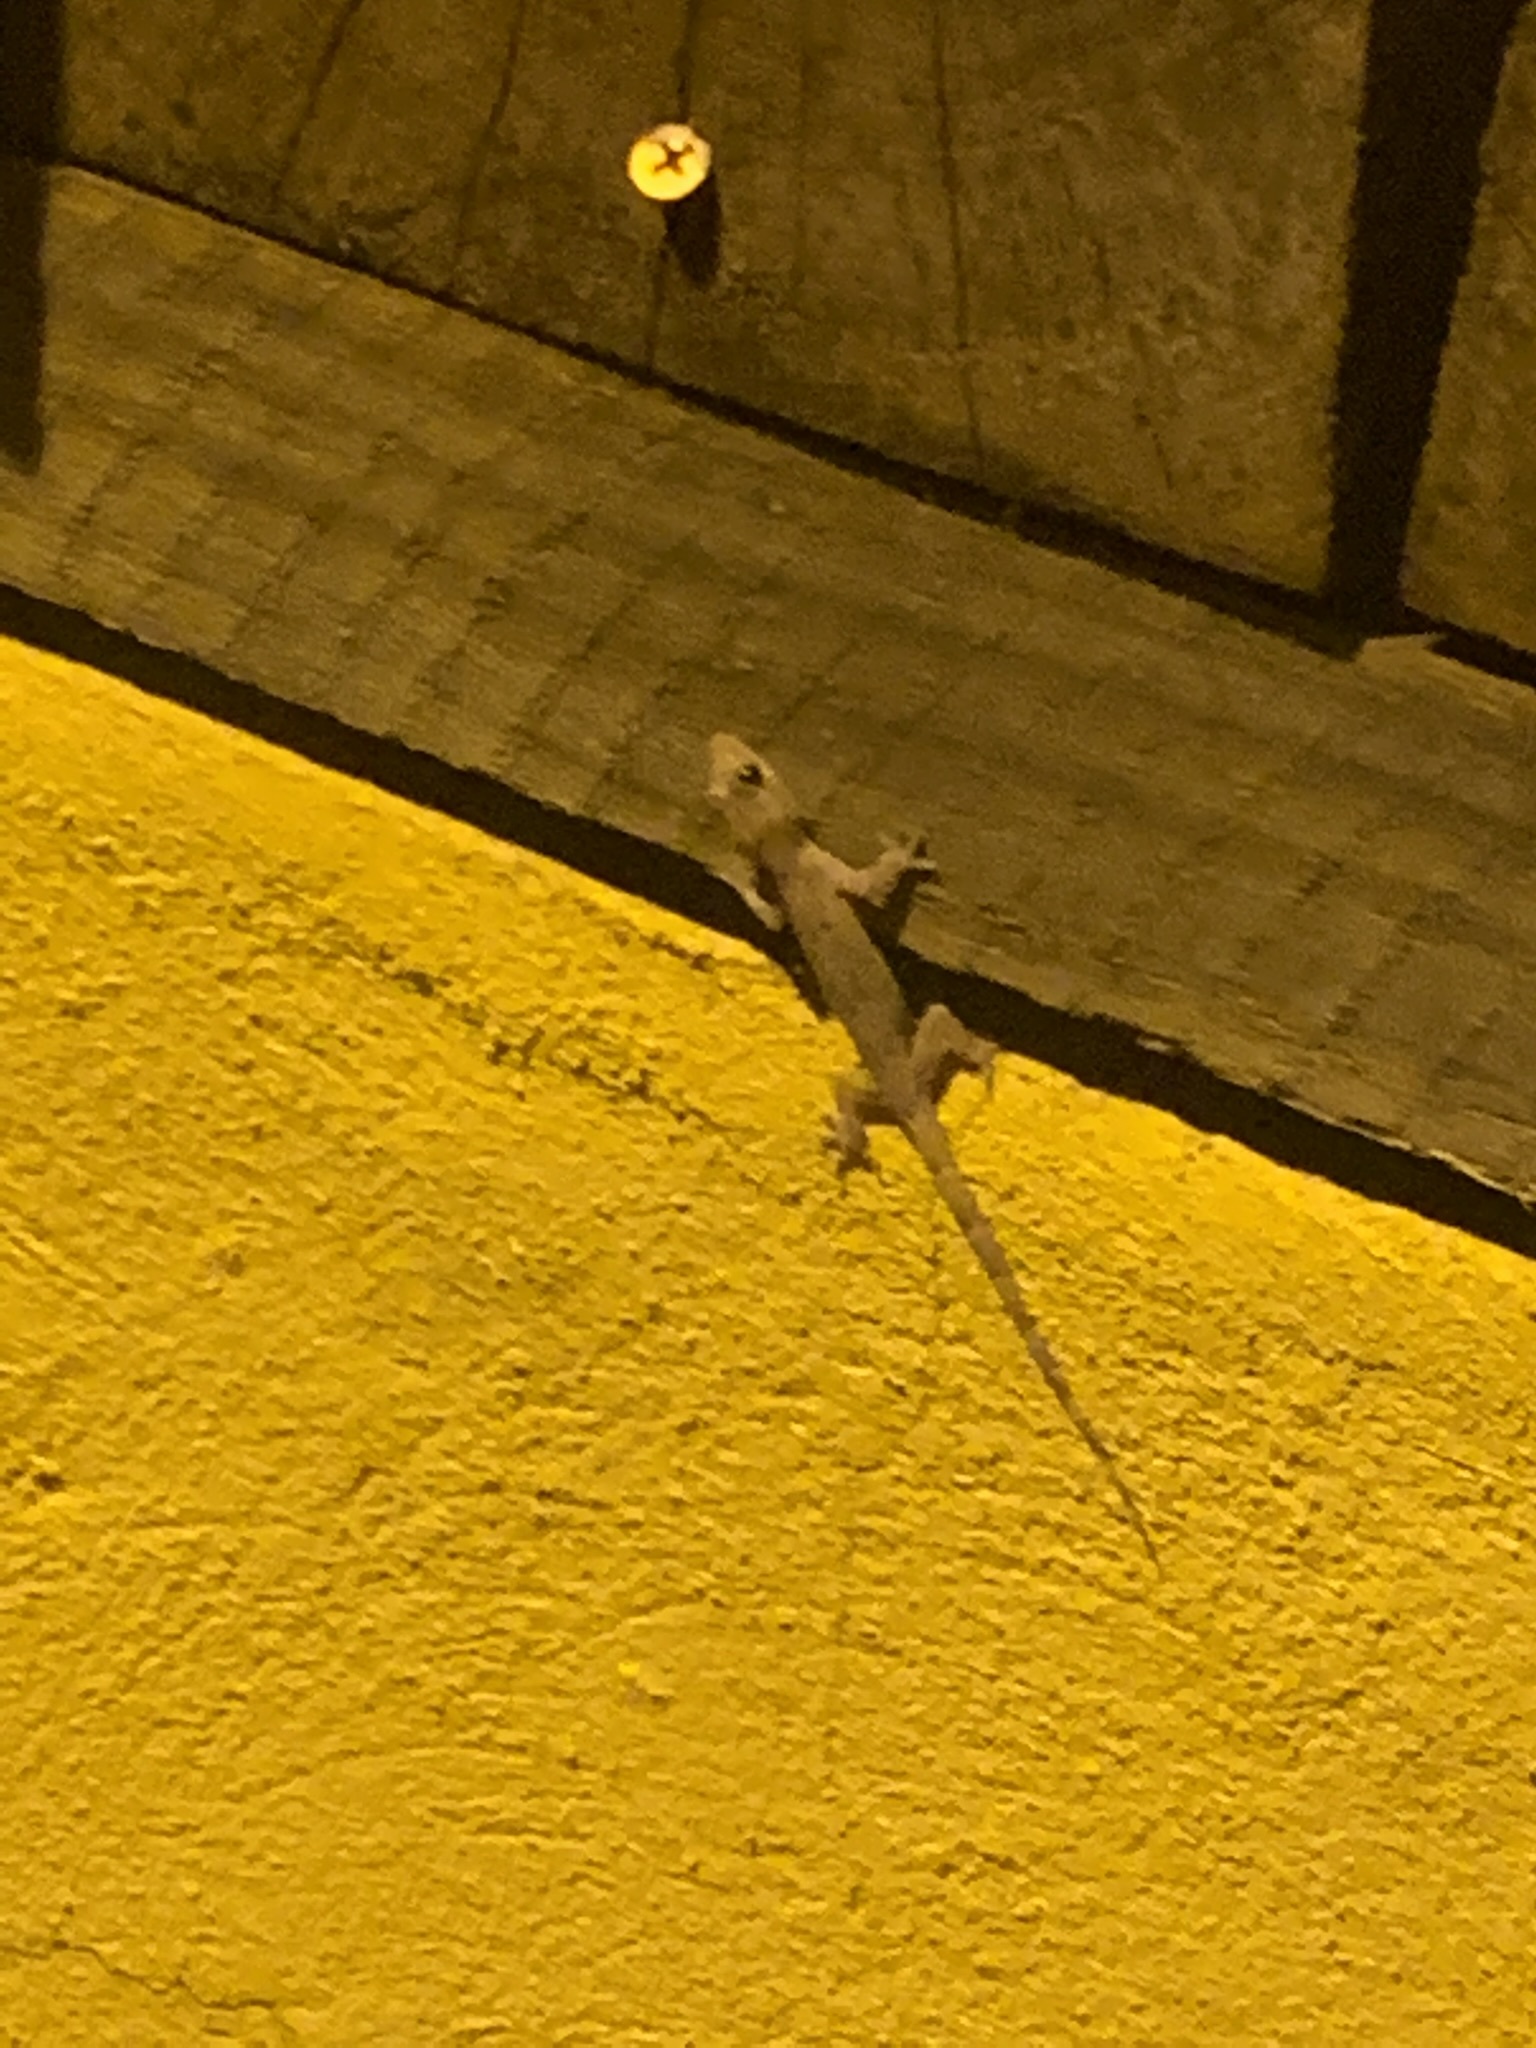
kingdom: Animalia
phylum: Chordata
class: Squamata
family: Gekkonidae
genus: Hemidactylus
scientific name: Hemidactylus mabouia
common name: House gecko
